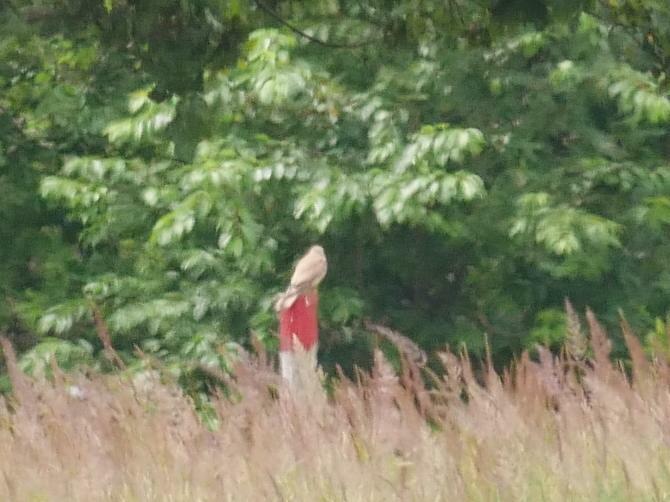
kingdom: Animalia
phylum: Chordata
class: Aves
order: Falconiformes
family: Falconidae
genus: Falco
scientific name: Falco tinnunculus
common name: Common kestrel
